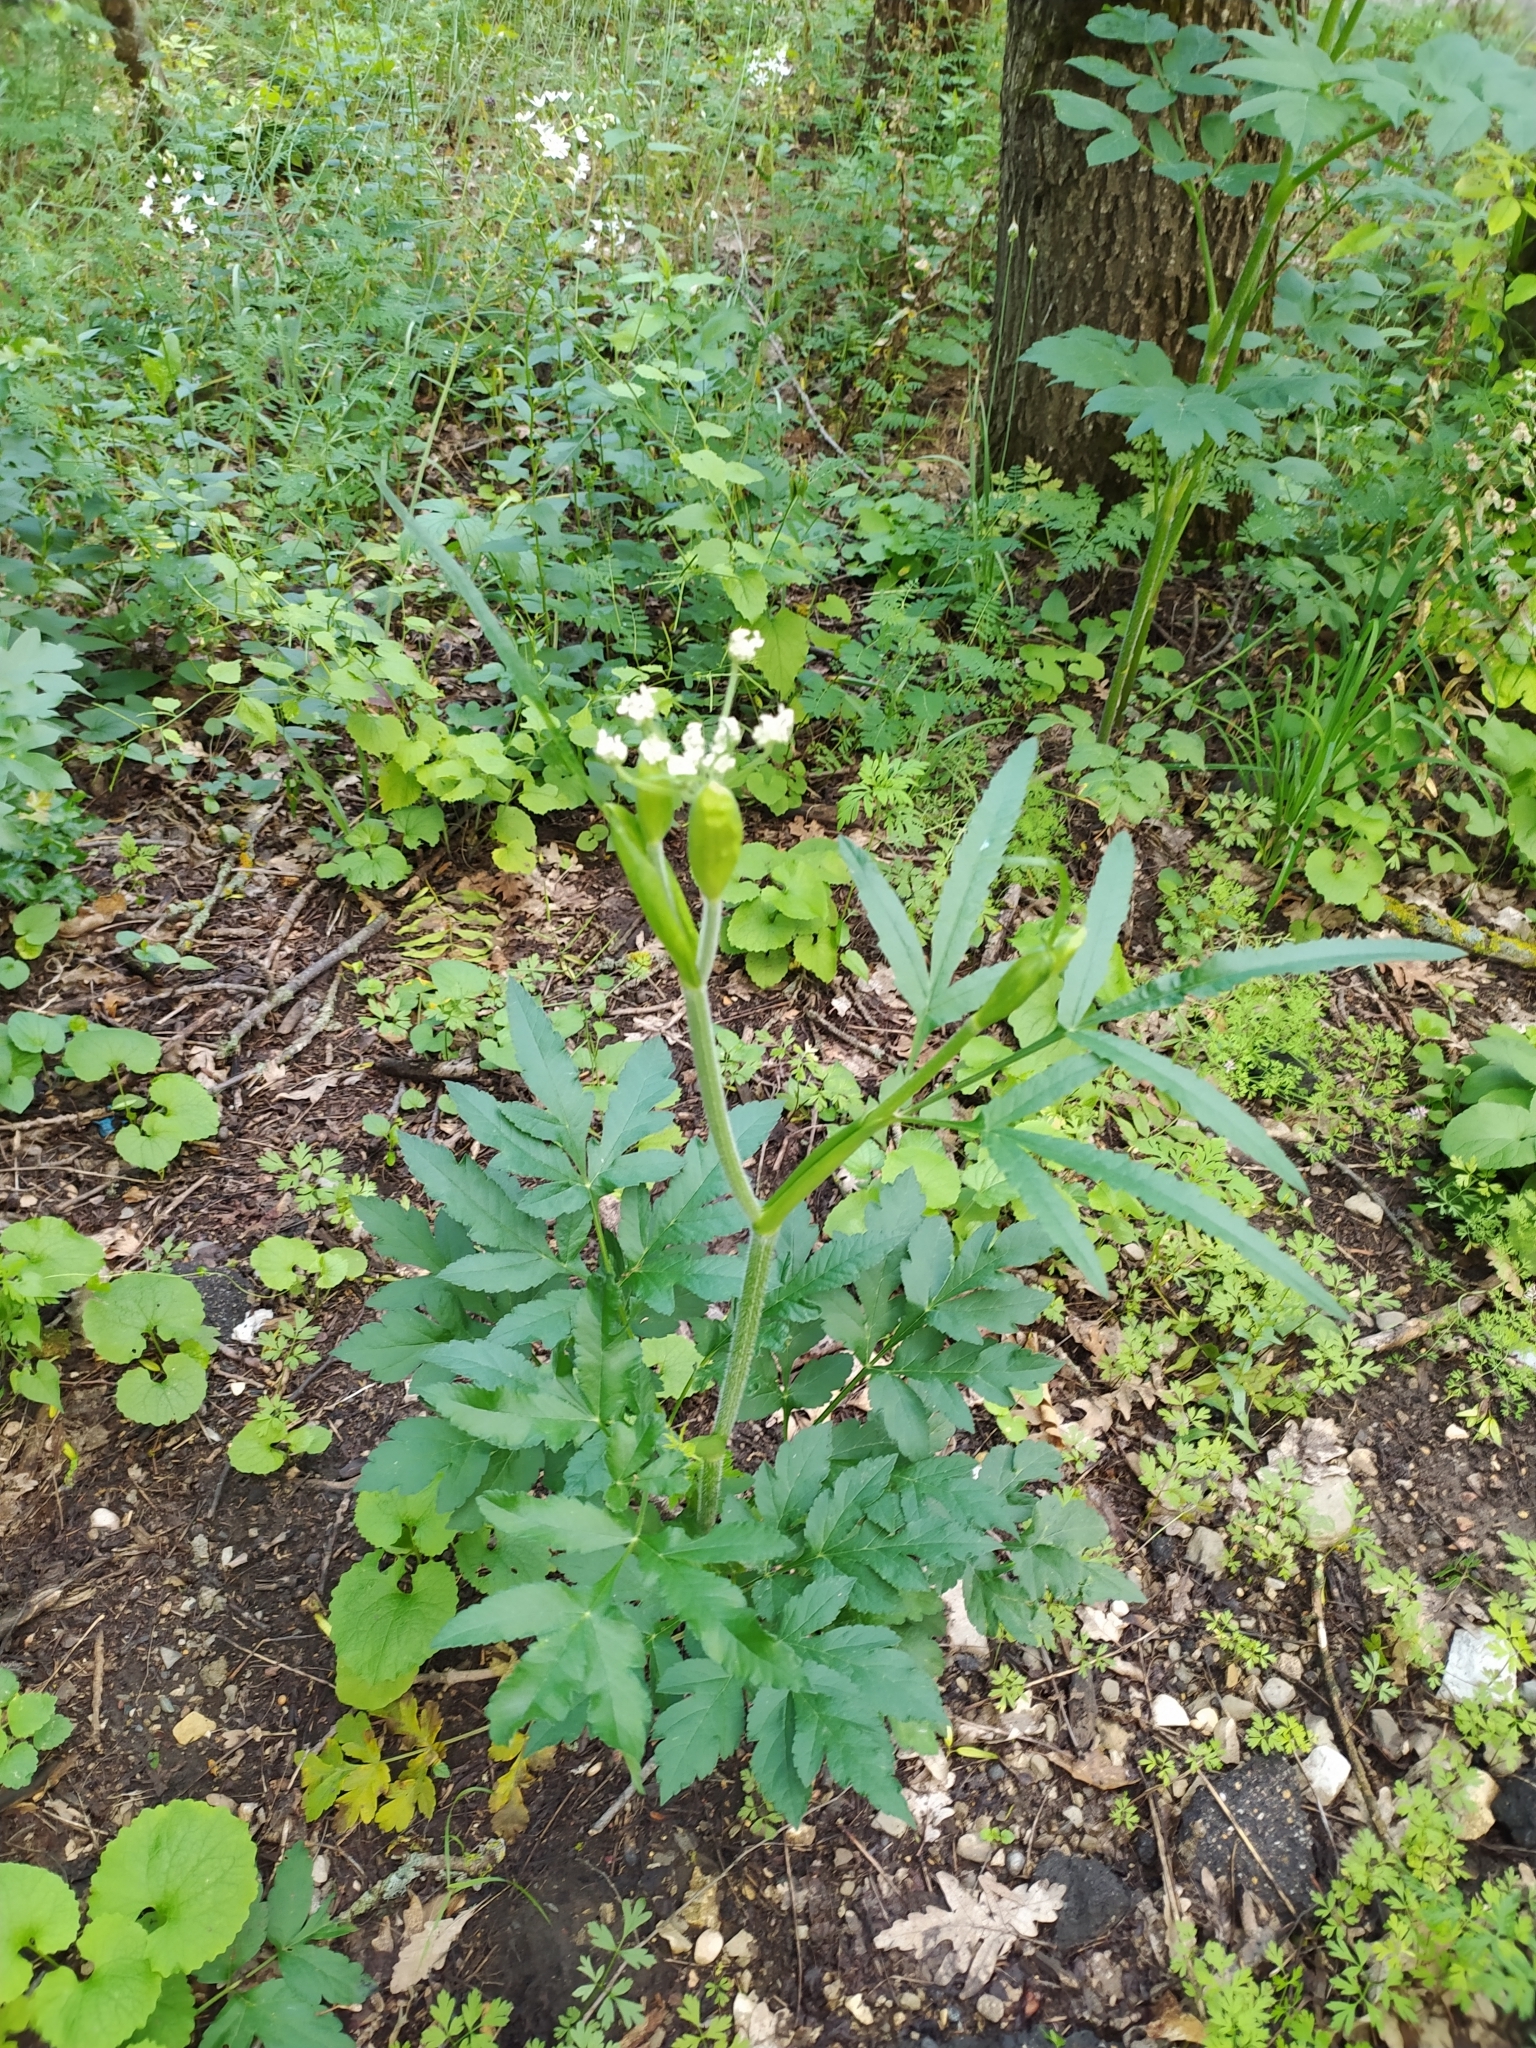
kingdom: Plantae
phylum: Tracheophyta
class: Magnoliopsida
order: Apiales
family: Apiaceae
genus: Heracleum
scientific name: Heracleum chorodanum
